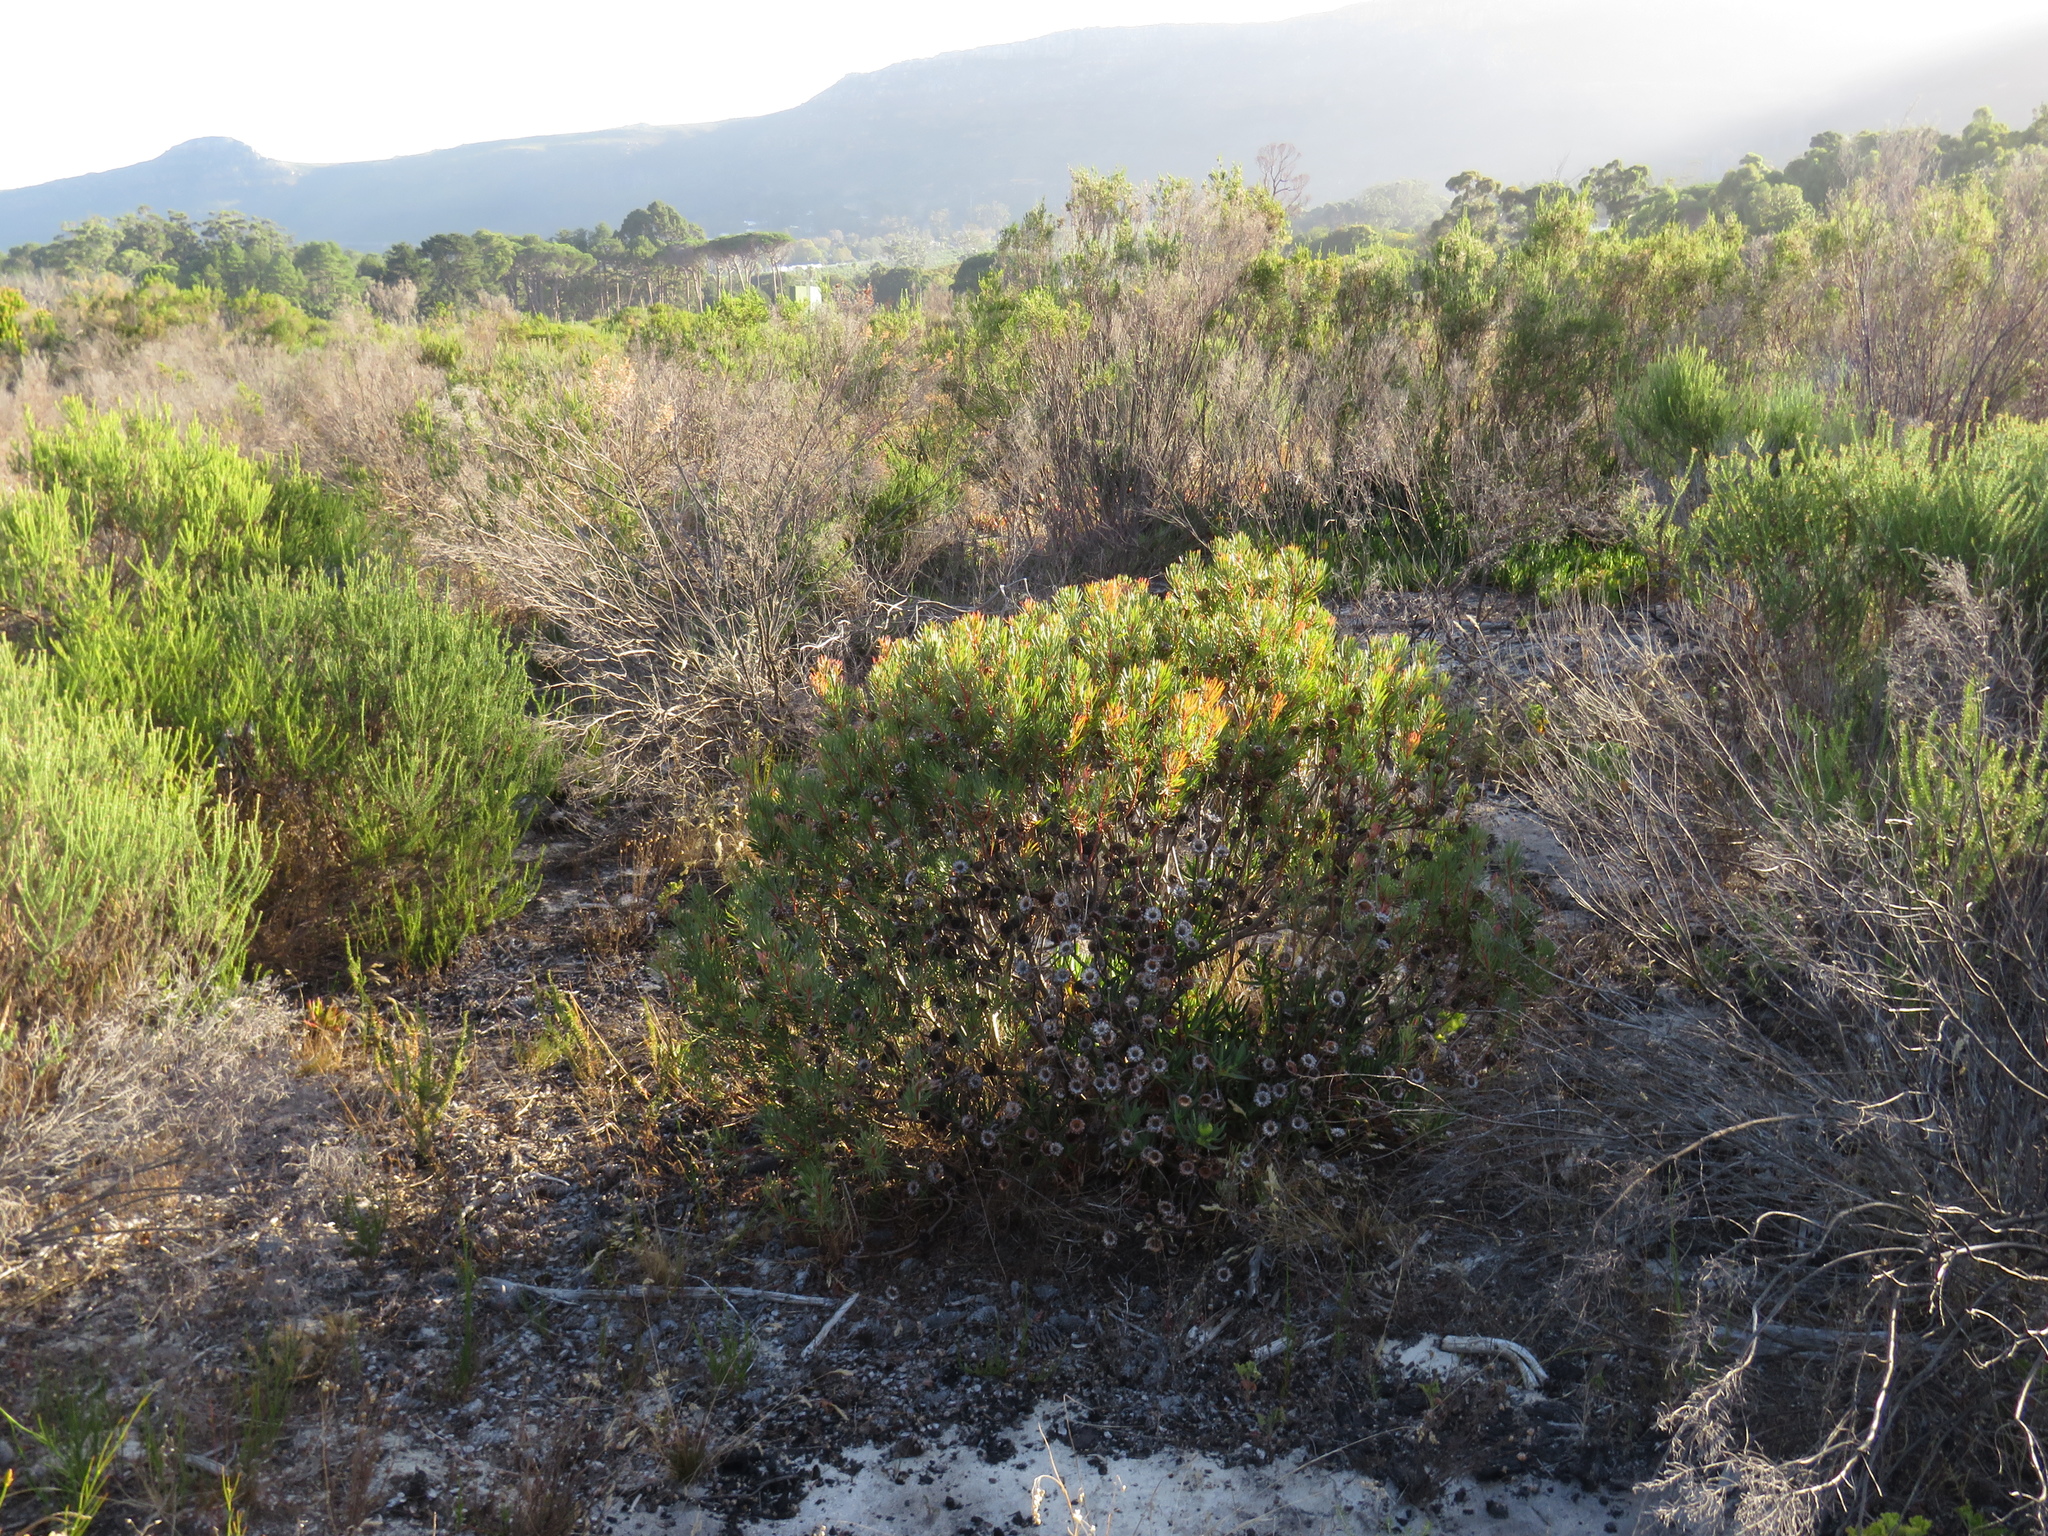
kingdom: Plantae
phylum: Tracheophyta
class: Magnoliopsida
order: Proteales
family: Proteaceae
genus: Protea
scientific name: Protea scolymocephala
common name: Thistle sugarbush
